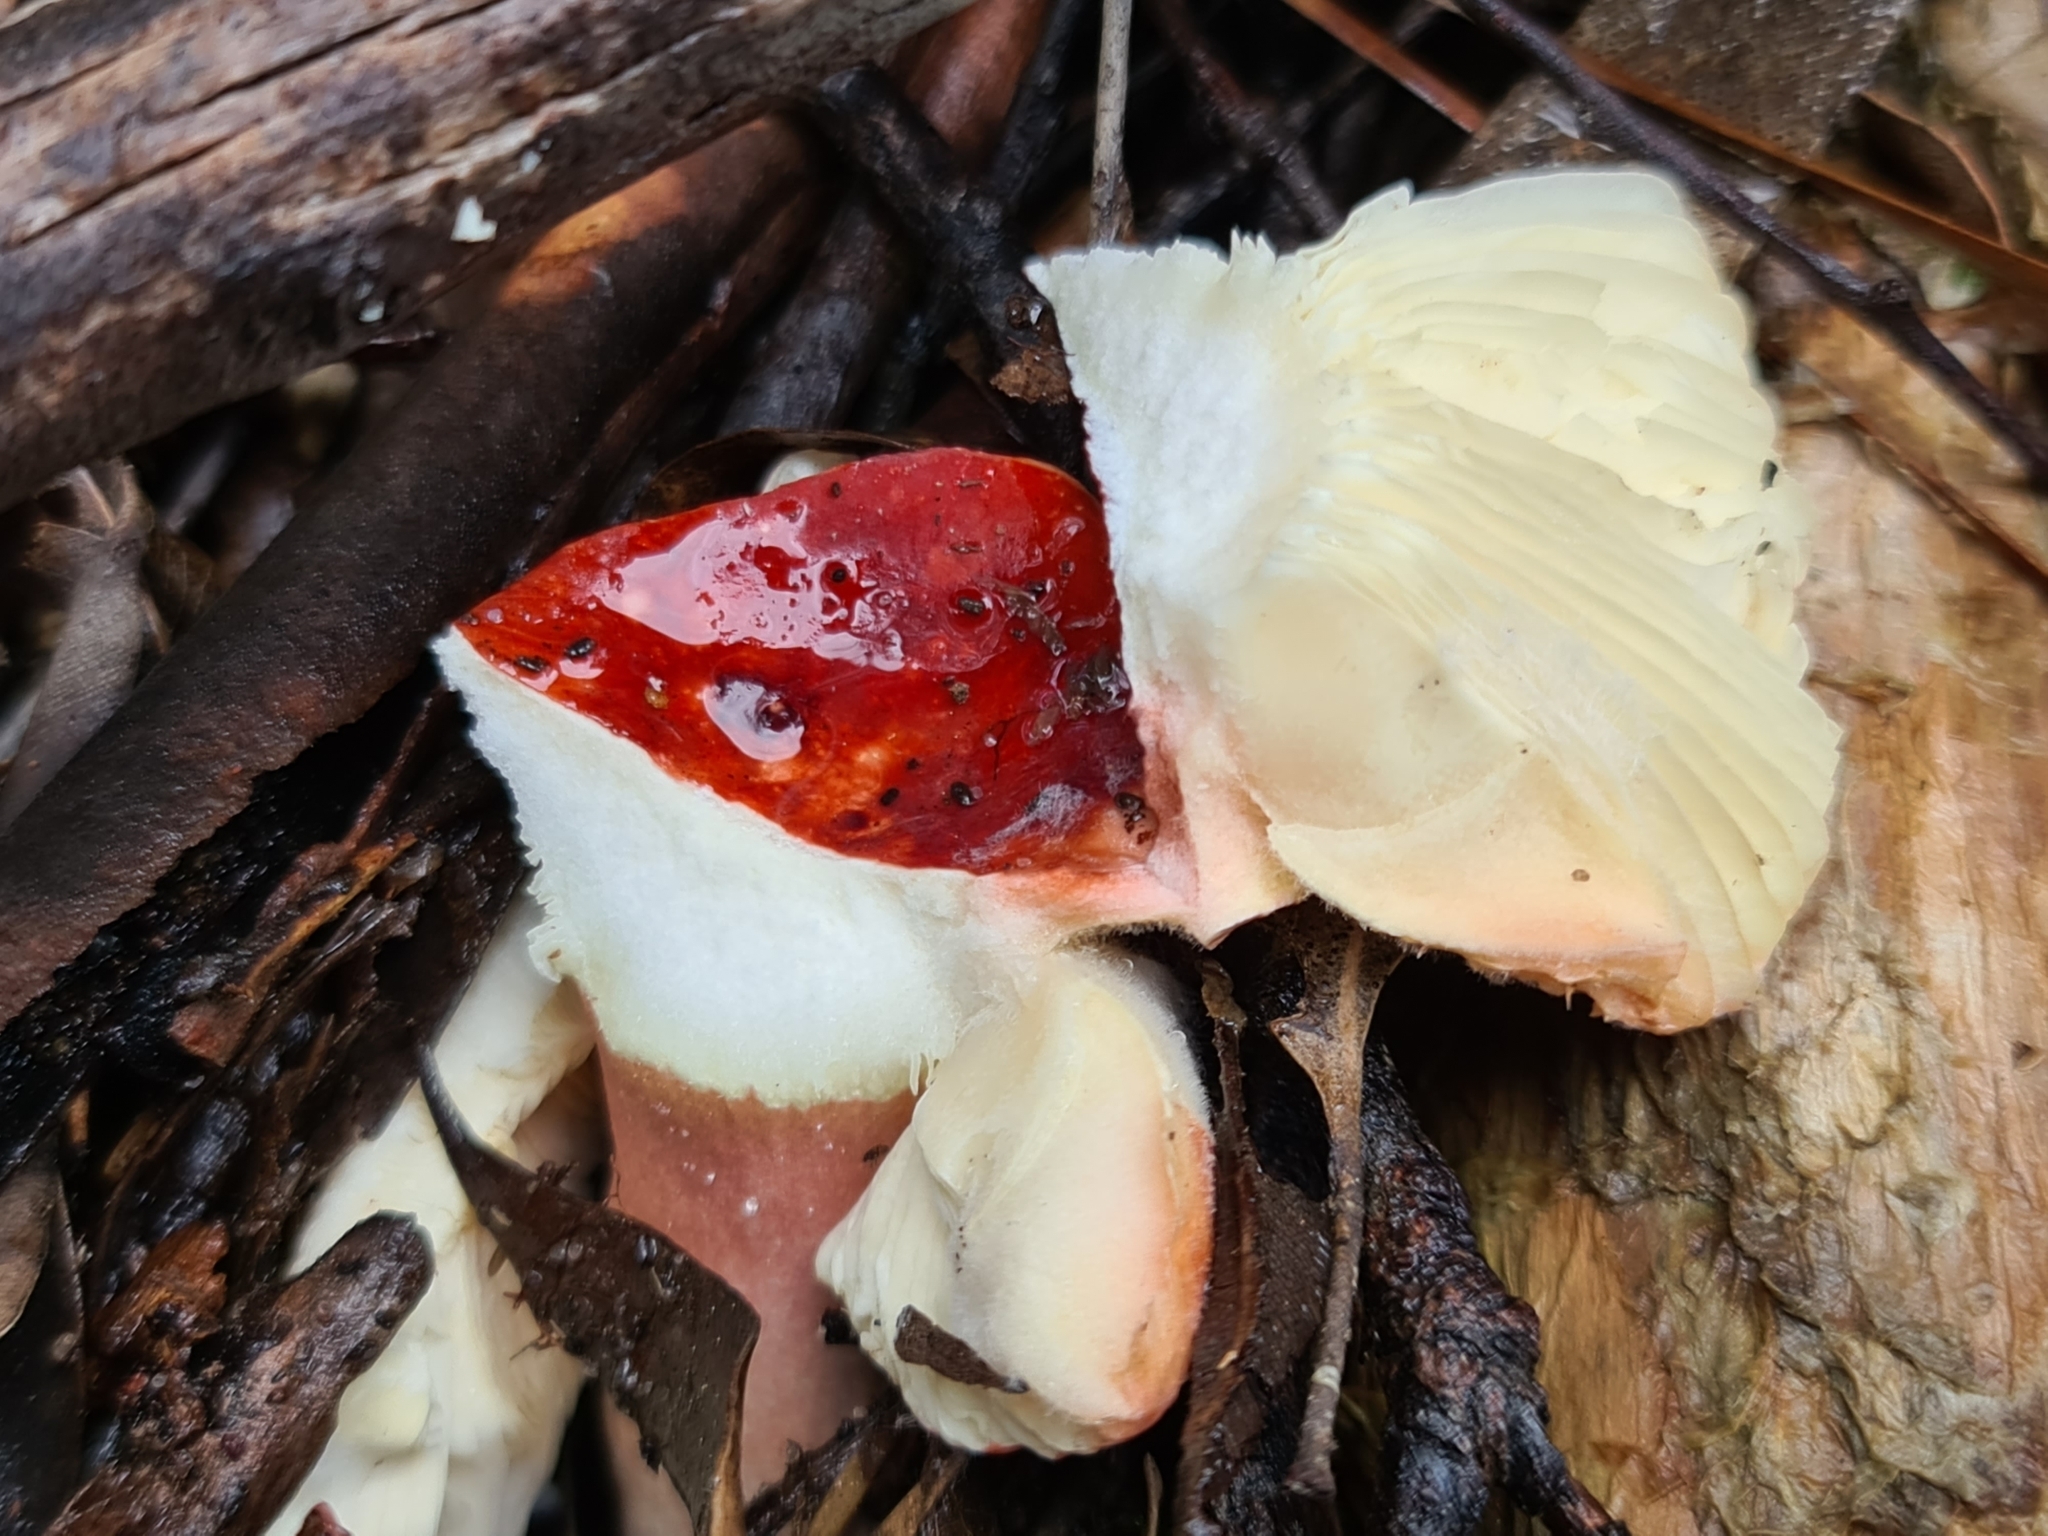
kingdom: Fungi
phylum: Basidiomycota
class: Agaricomycetes
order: Russulales
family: Russulaceae
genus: Russula
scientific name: Russula clelandii
